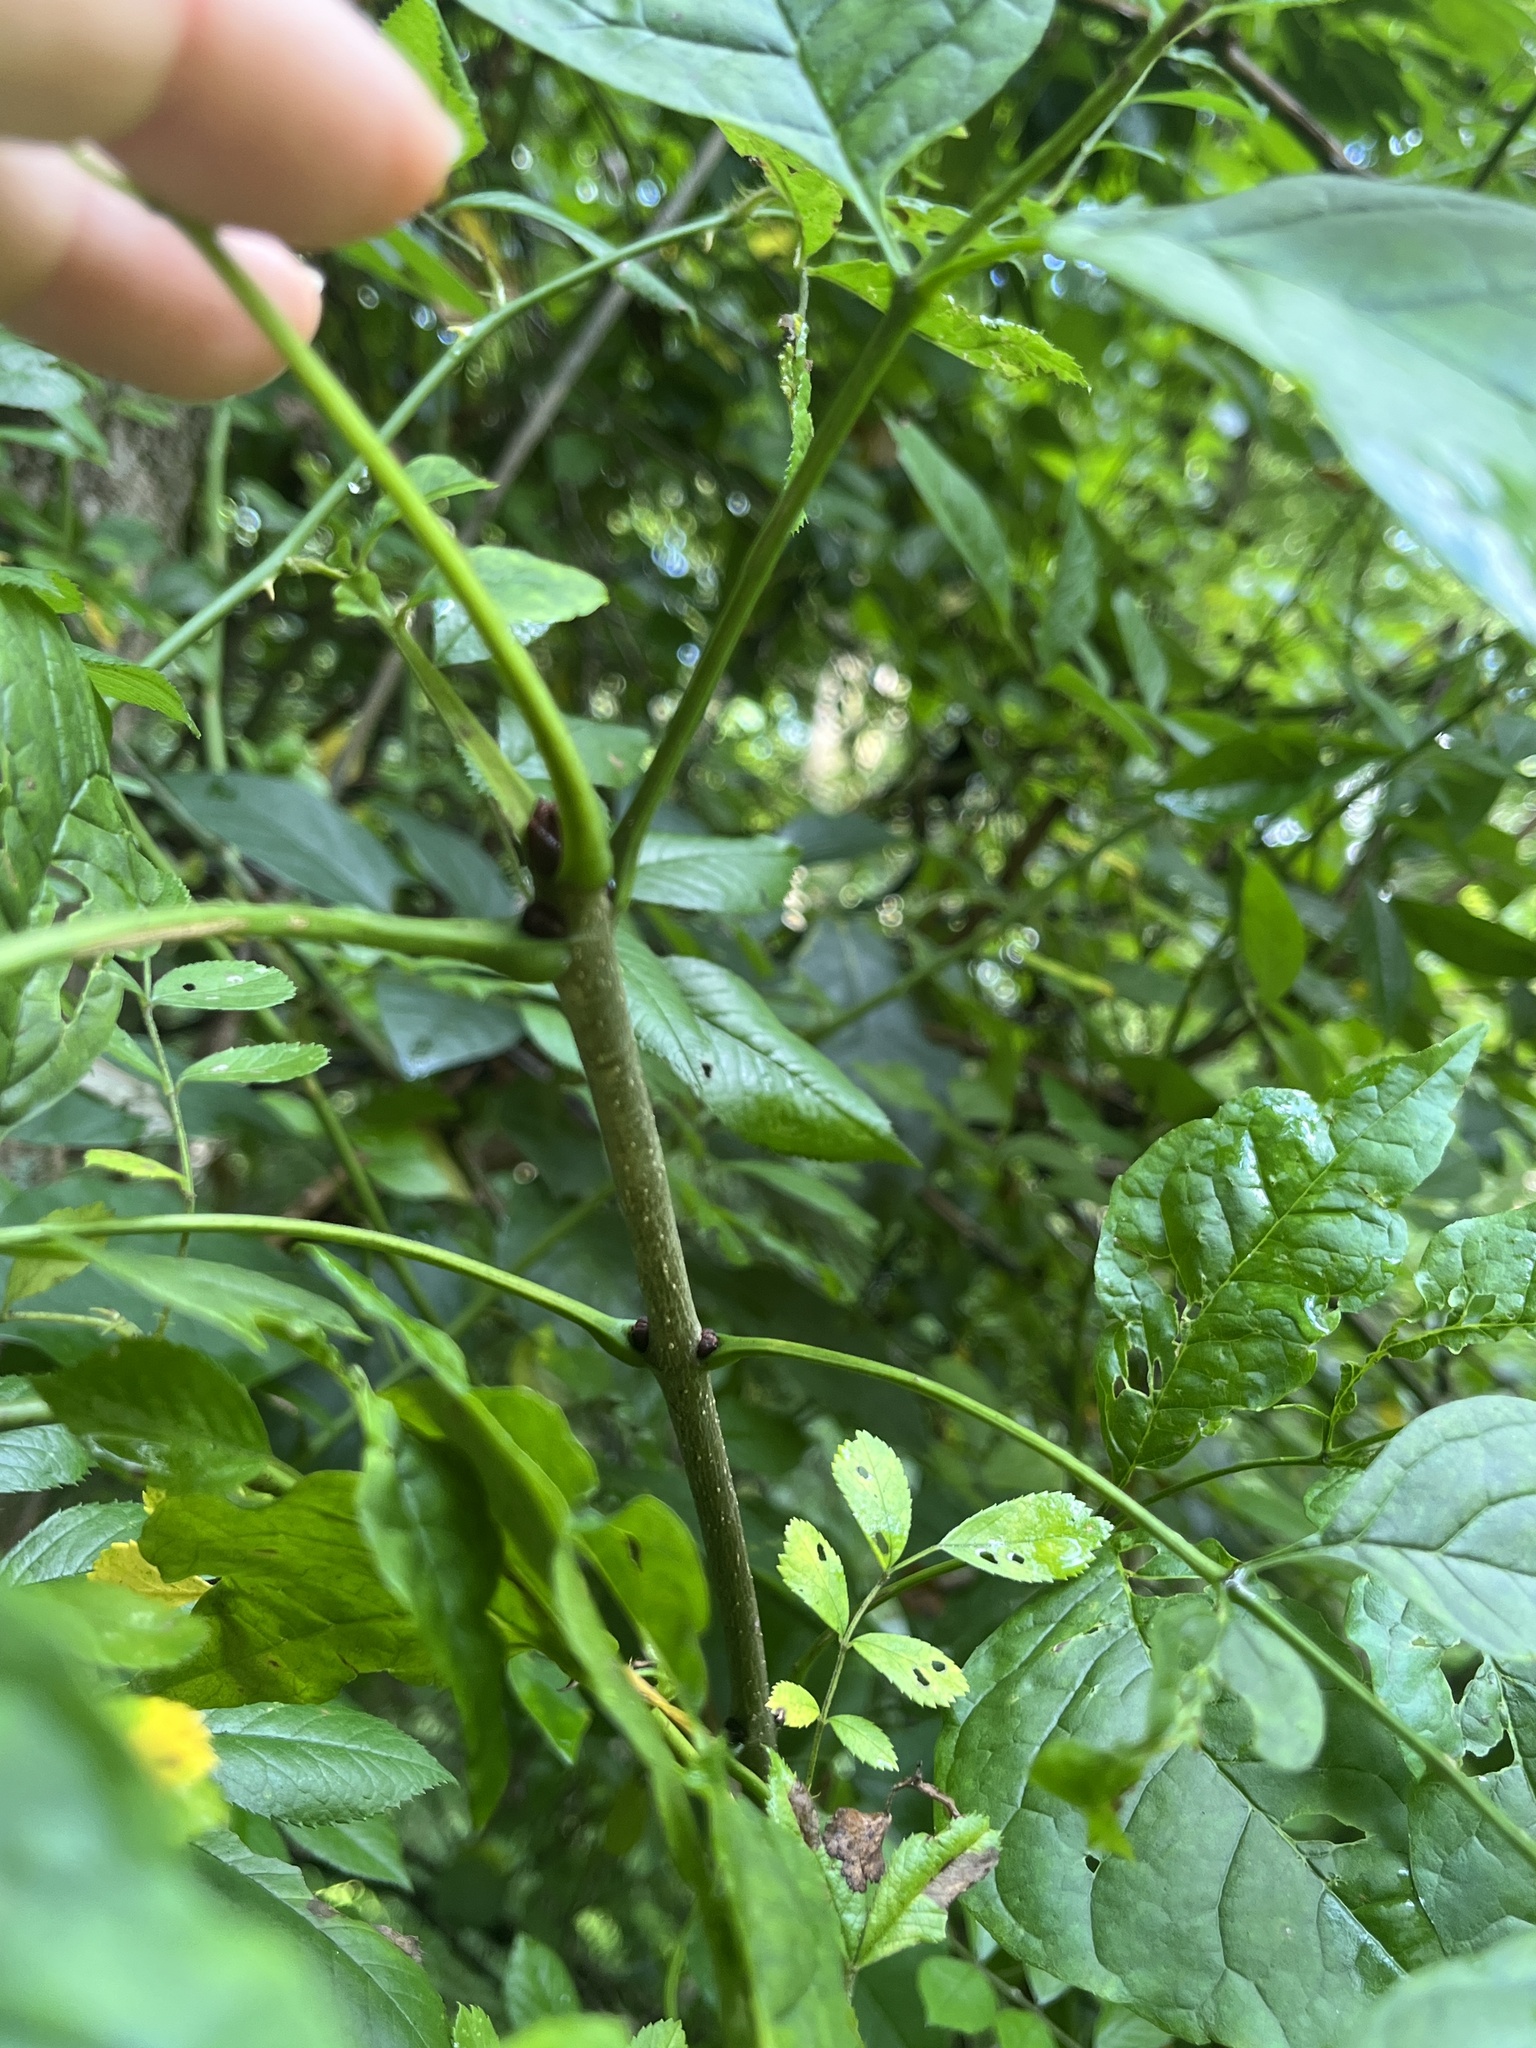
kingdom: Plantae
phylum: Tracheophyta
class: Magnoliopsida
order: Lamiales
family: Oleaceae
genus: Fraxinus
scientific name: Fraxinus pennsylvanica
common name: Green ash
